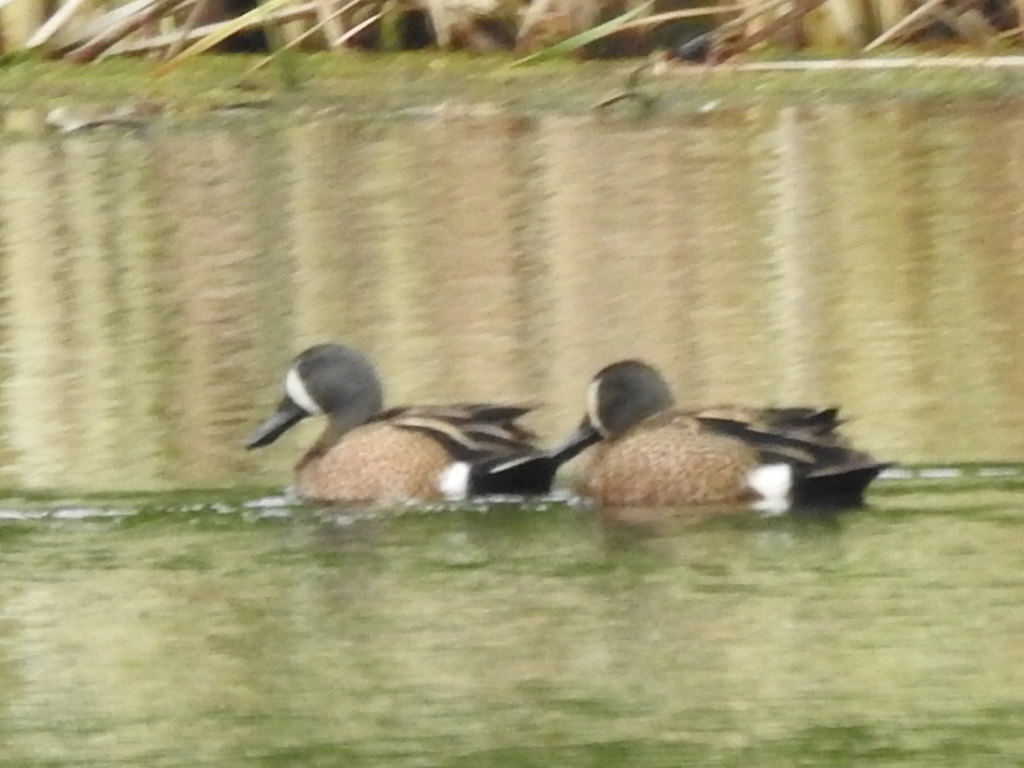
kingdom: Animalia
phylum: Chordata
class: Aves
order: Anseriformes
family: Anatidae
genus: Spatula
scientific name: Spatula discors
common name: Blue-winged teal
